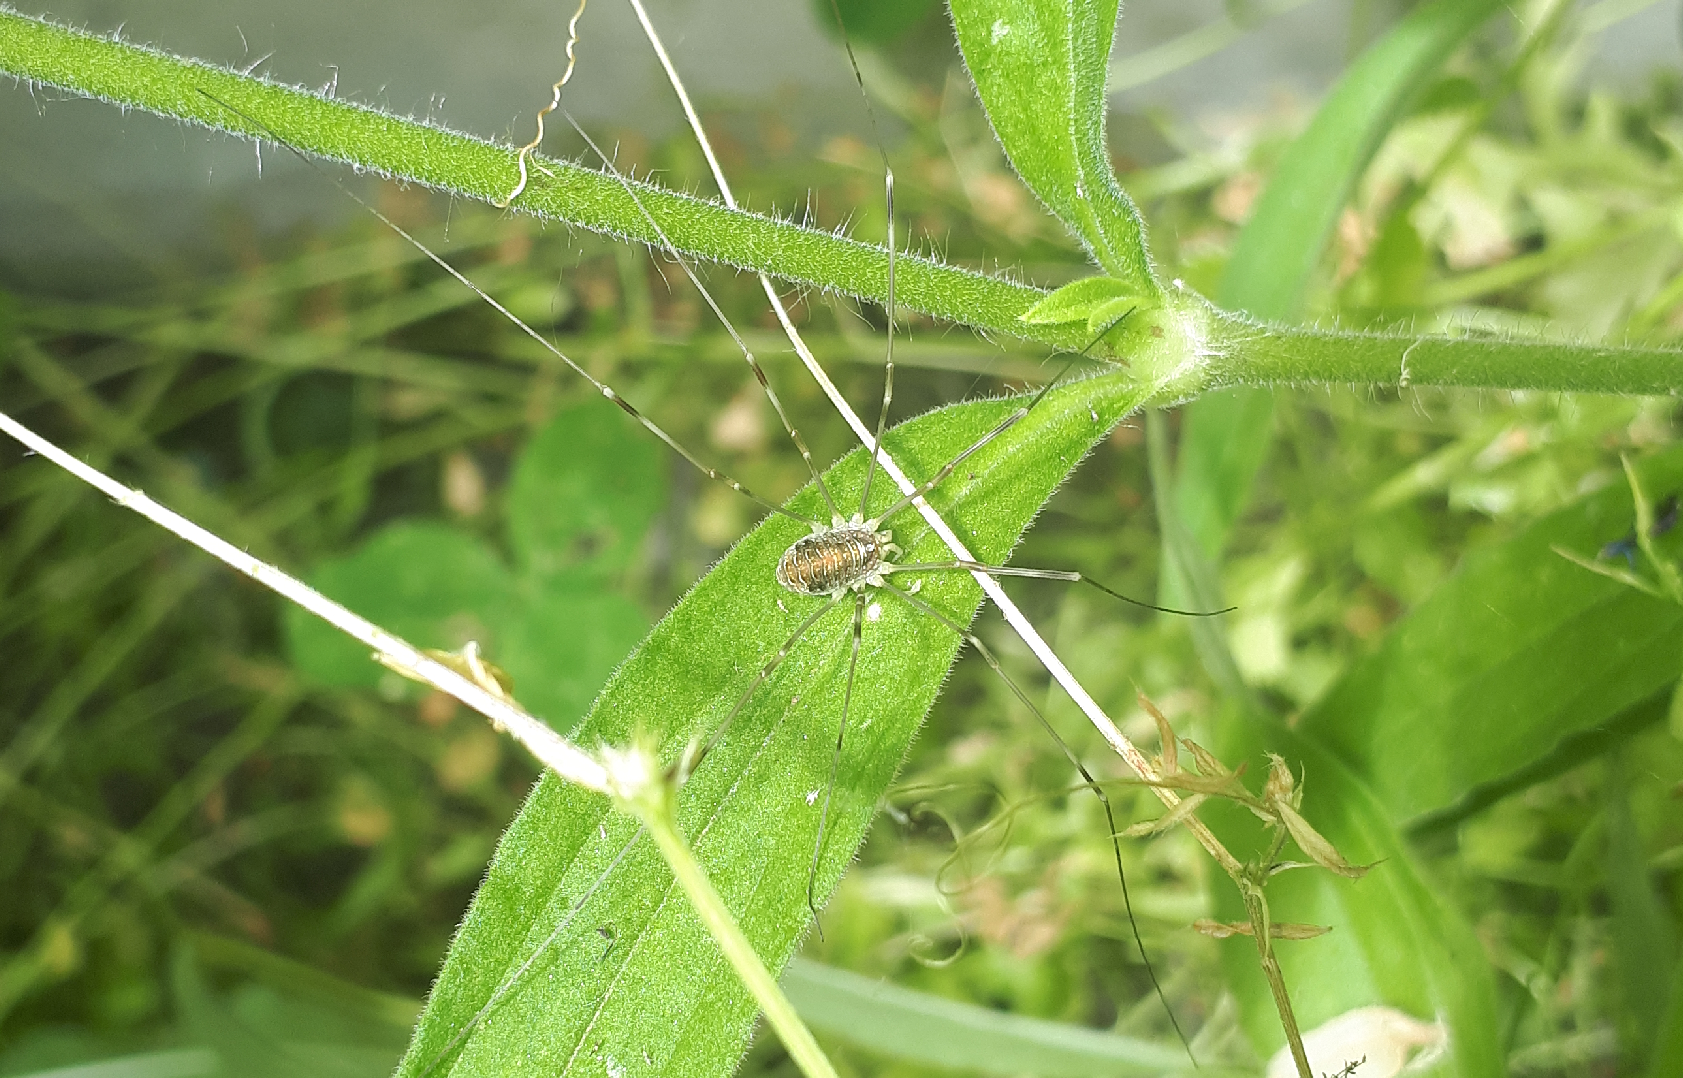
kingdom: Animalia
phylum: Arthropoda
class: Arachnida
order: Opiliones
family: Phalangiidae
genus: Opilio
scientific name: Opilio canestrinii
